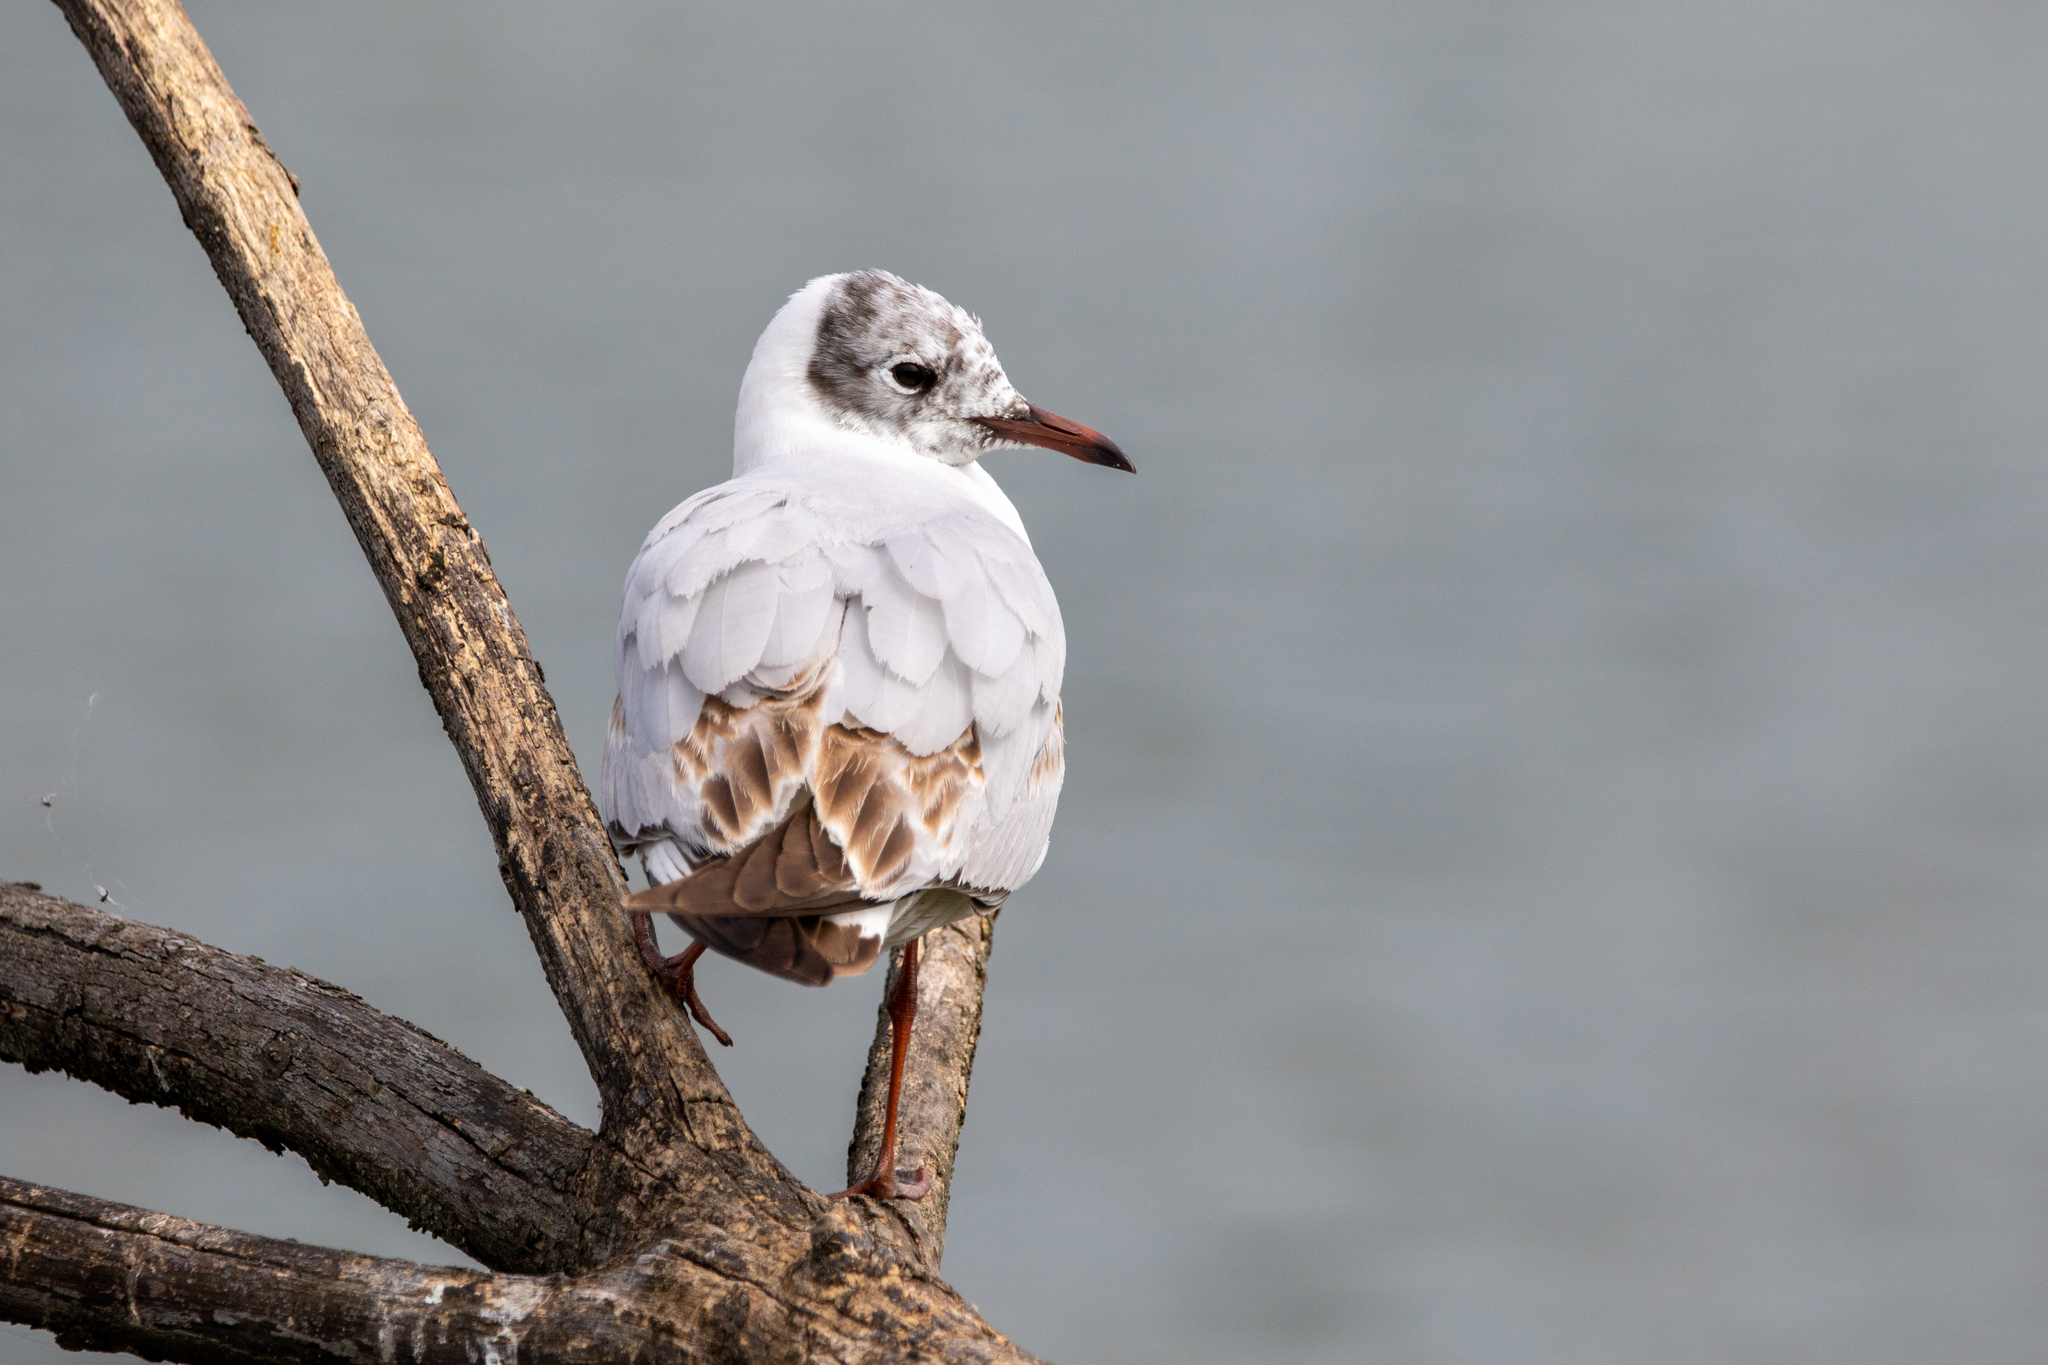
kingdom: Animalia
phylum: Chordata
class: Aves
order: Charadriiformes
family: Laridae
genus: Chroicocephalus
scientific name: Chroicocephalus ridibundus
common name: Black-headed gull
